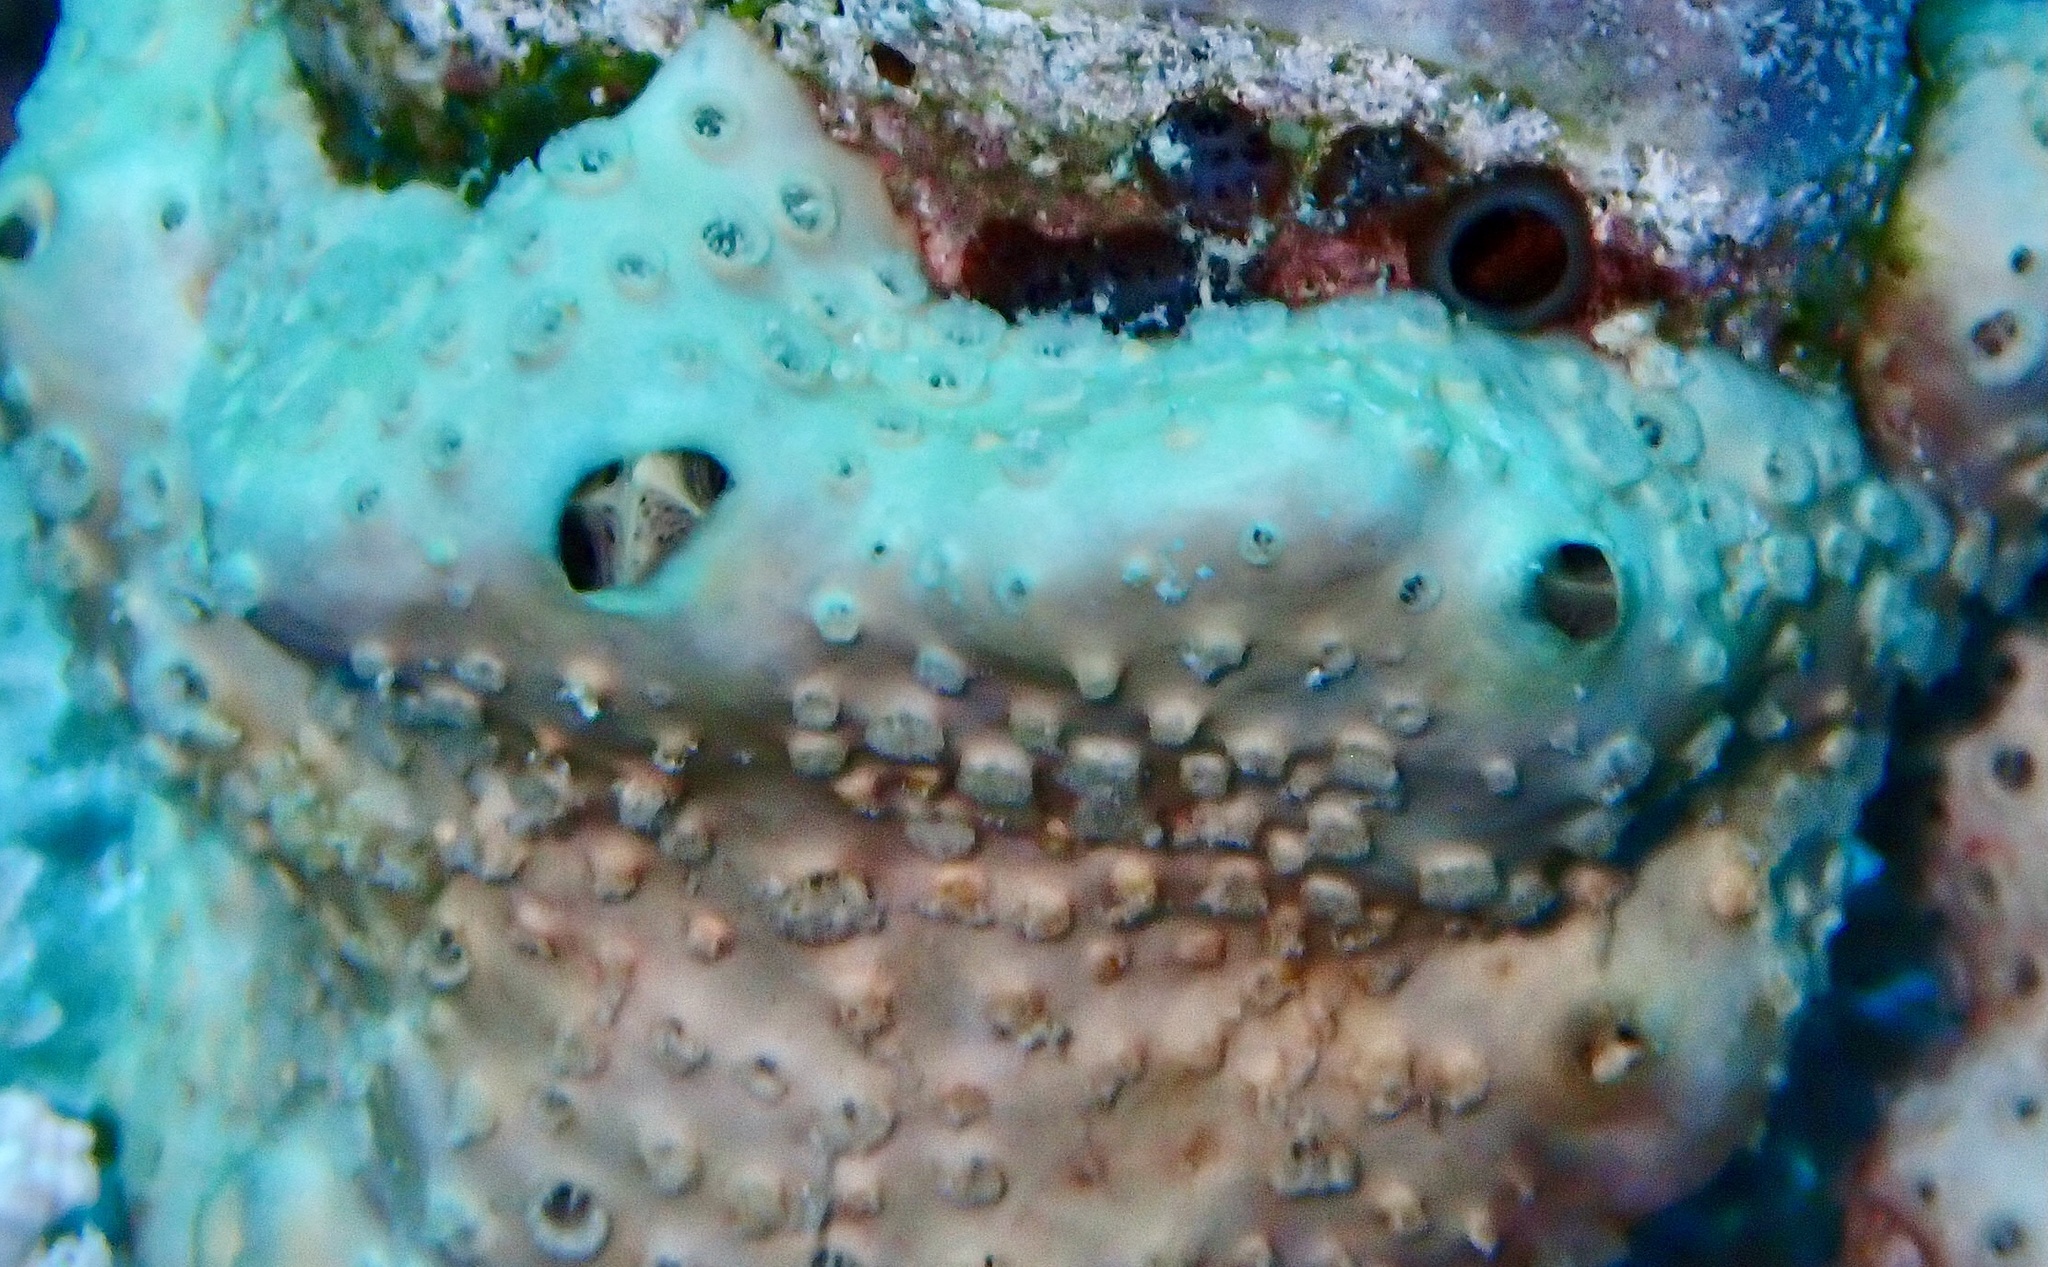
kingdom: Animalia
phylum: Porifera
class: Demospongiae
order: Poecilosclerida
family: Crellidae
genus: Crella
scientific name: Crella cyathophora
